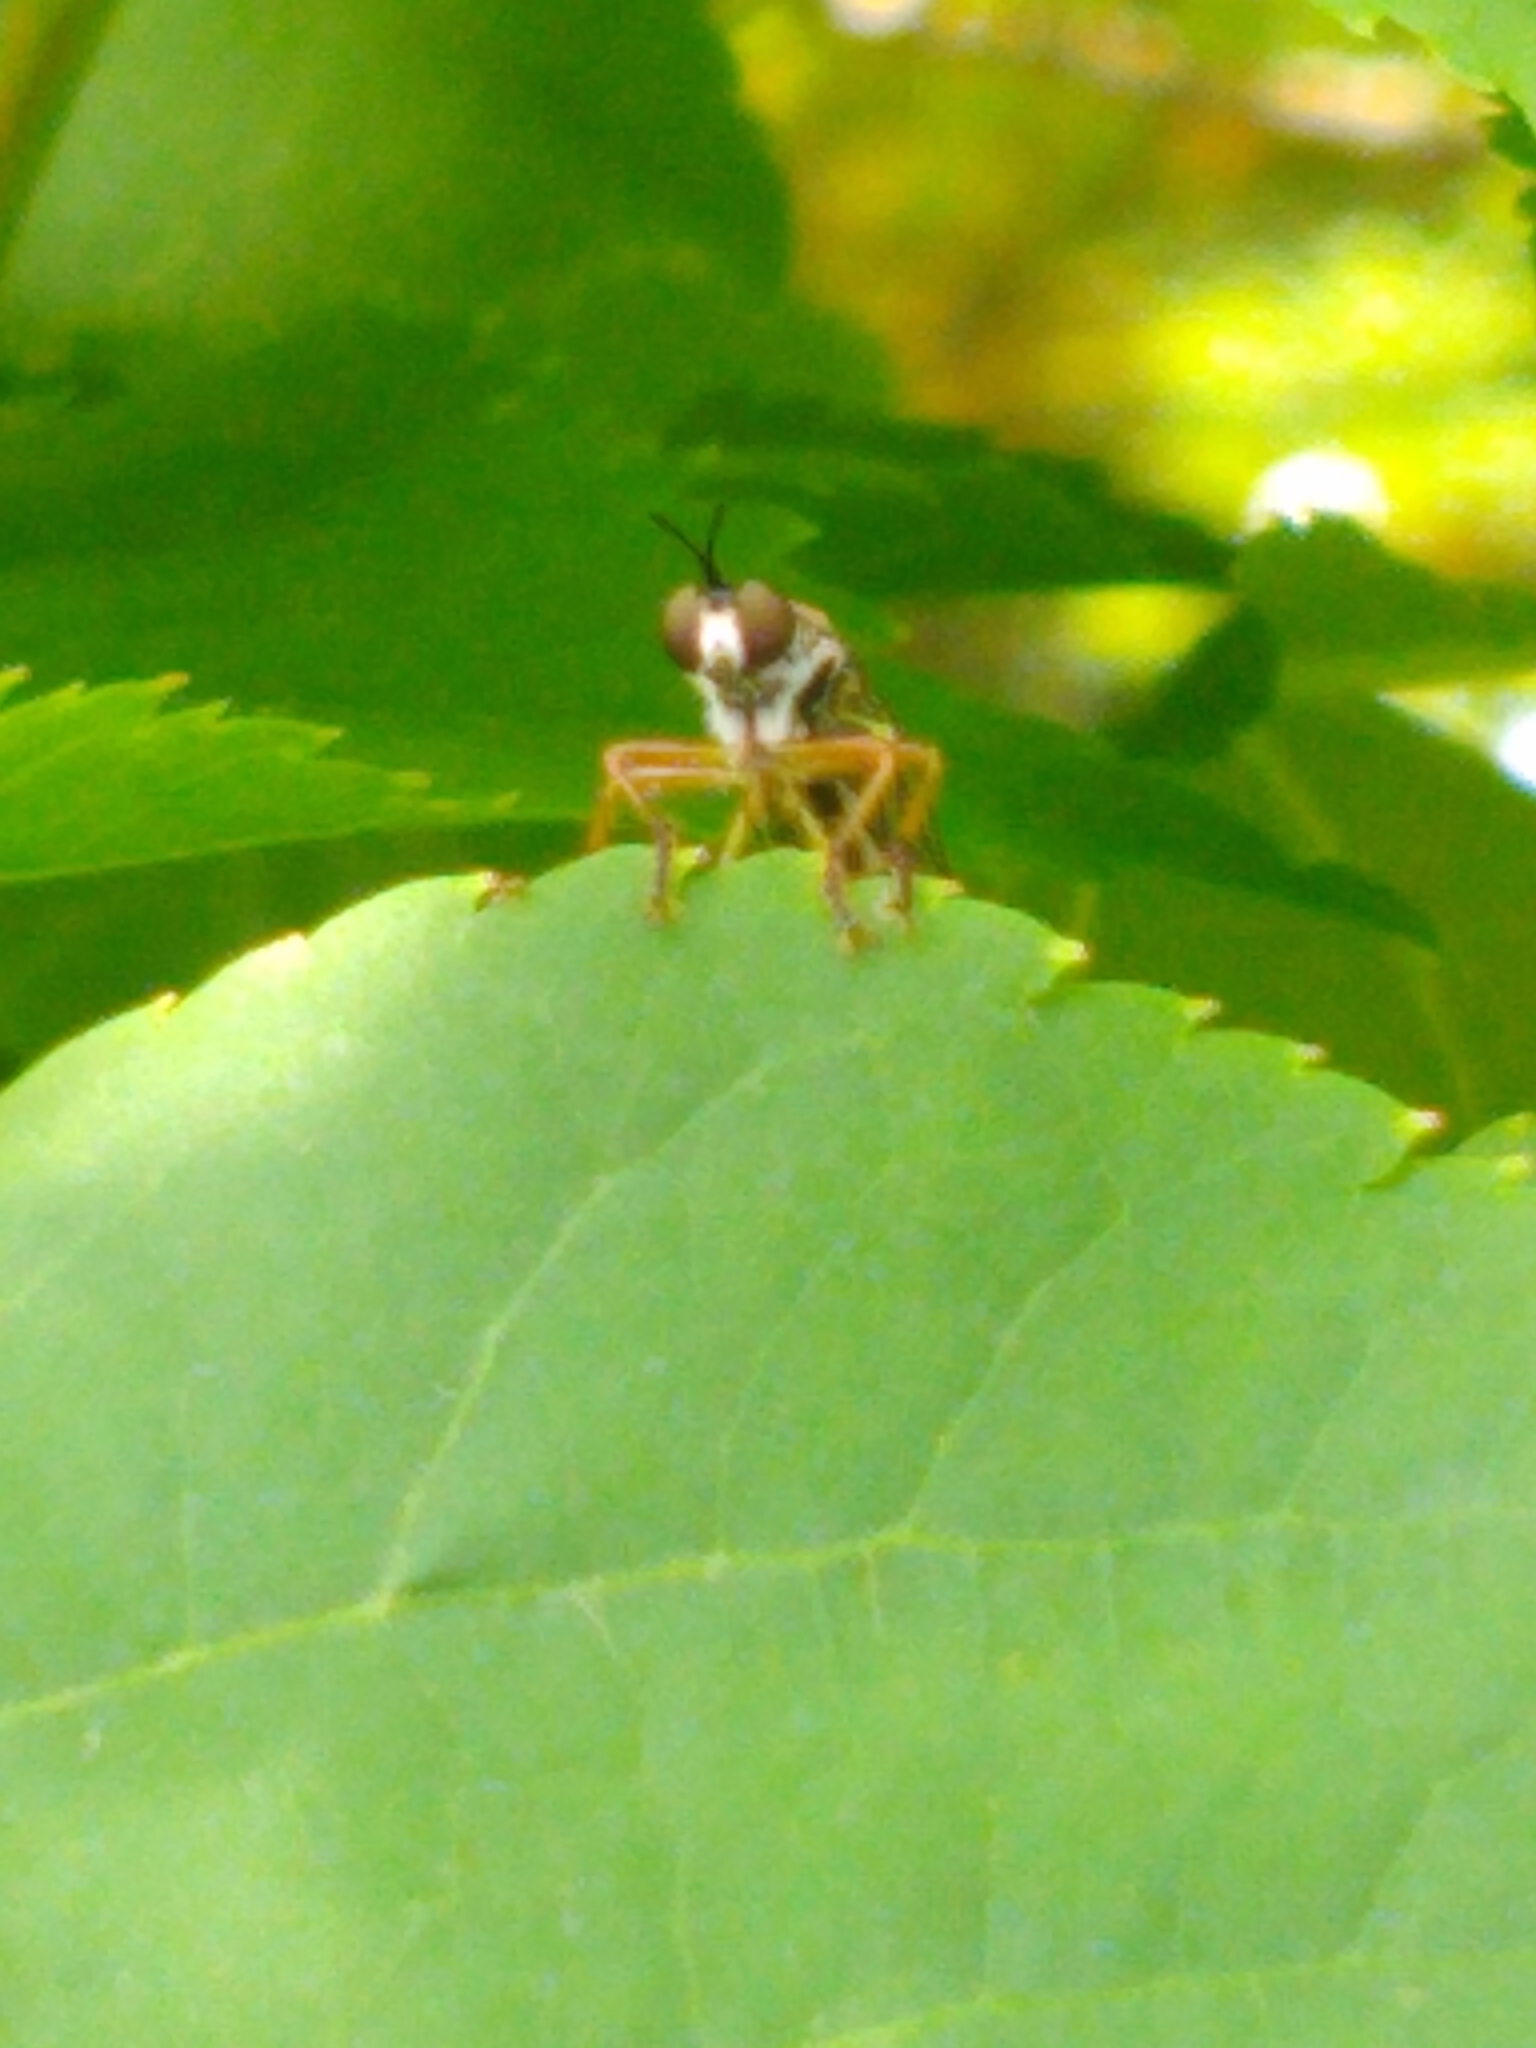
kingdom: Animalia
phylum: Arthropoda
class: Insecta
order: Diptera
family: Asilidae
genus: Dioctria
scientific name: Dioctria hyalipennis
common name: Stripe-legged robberfly
